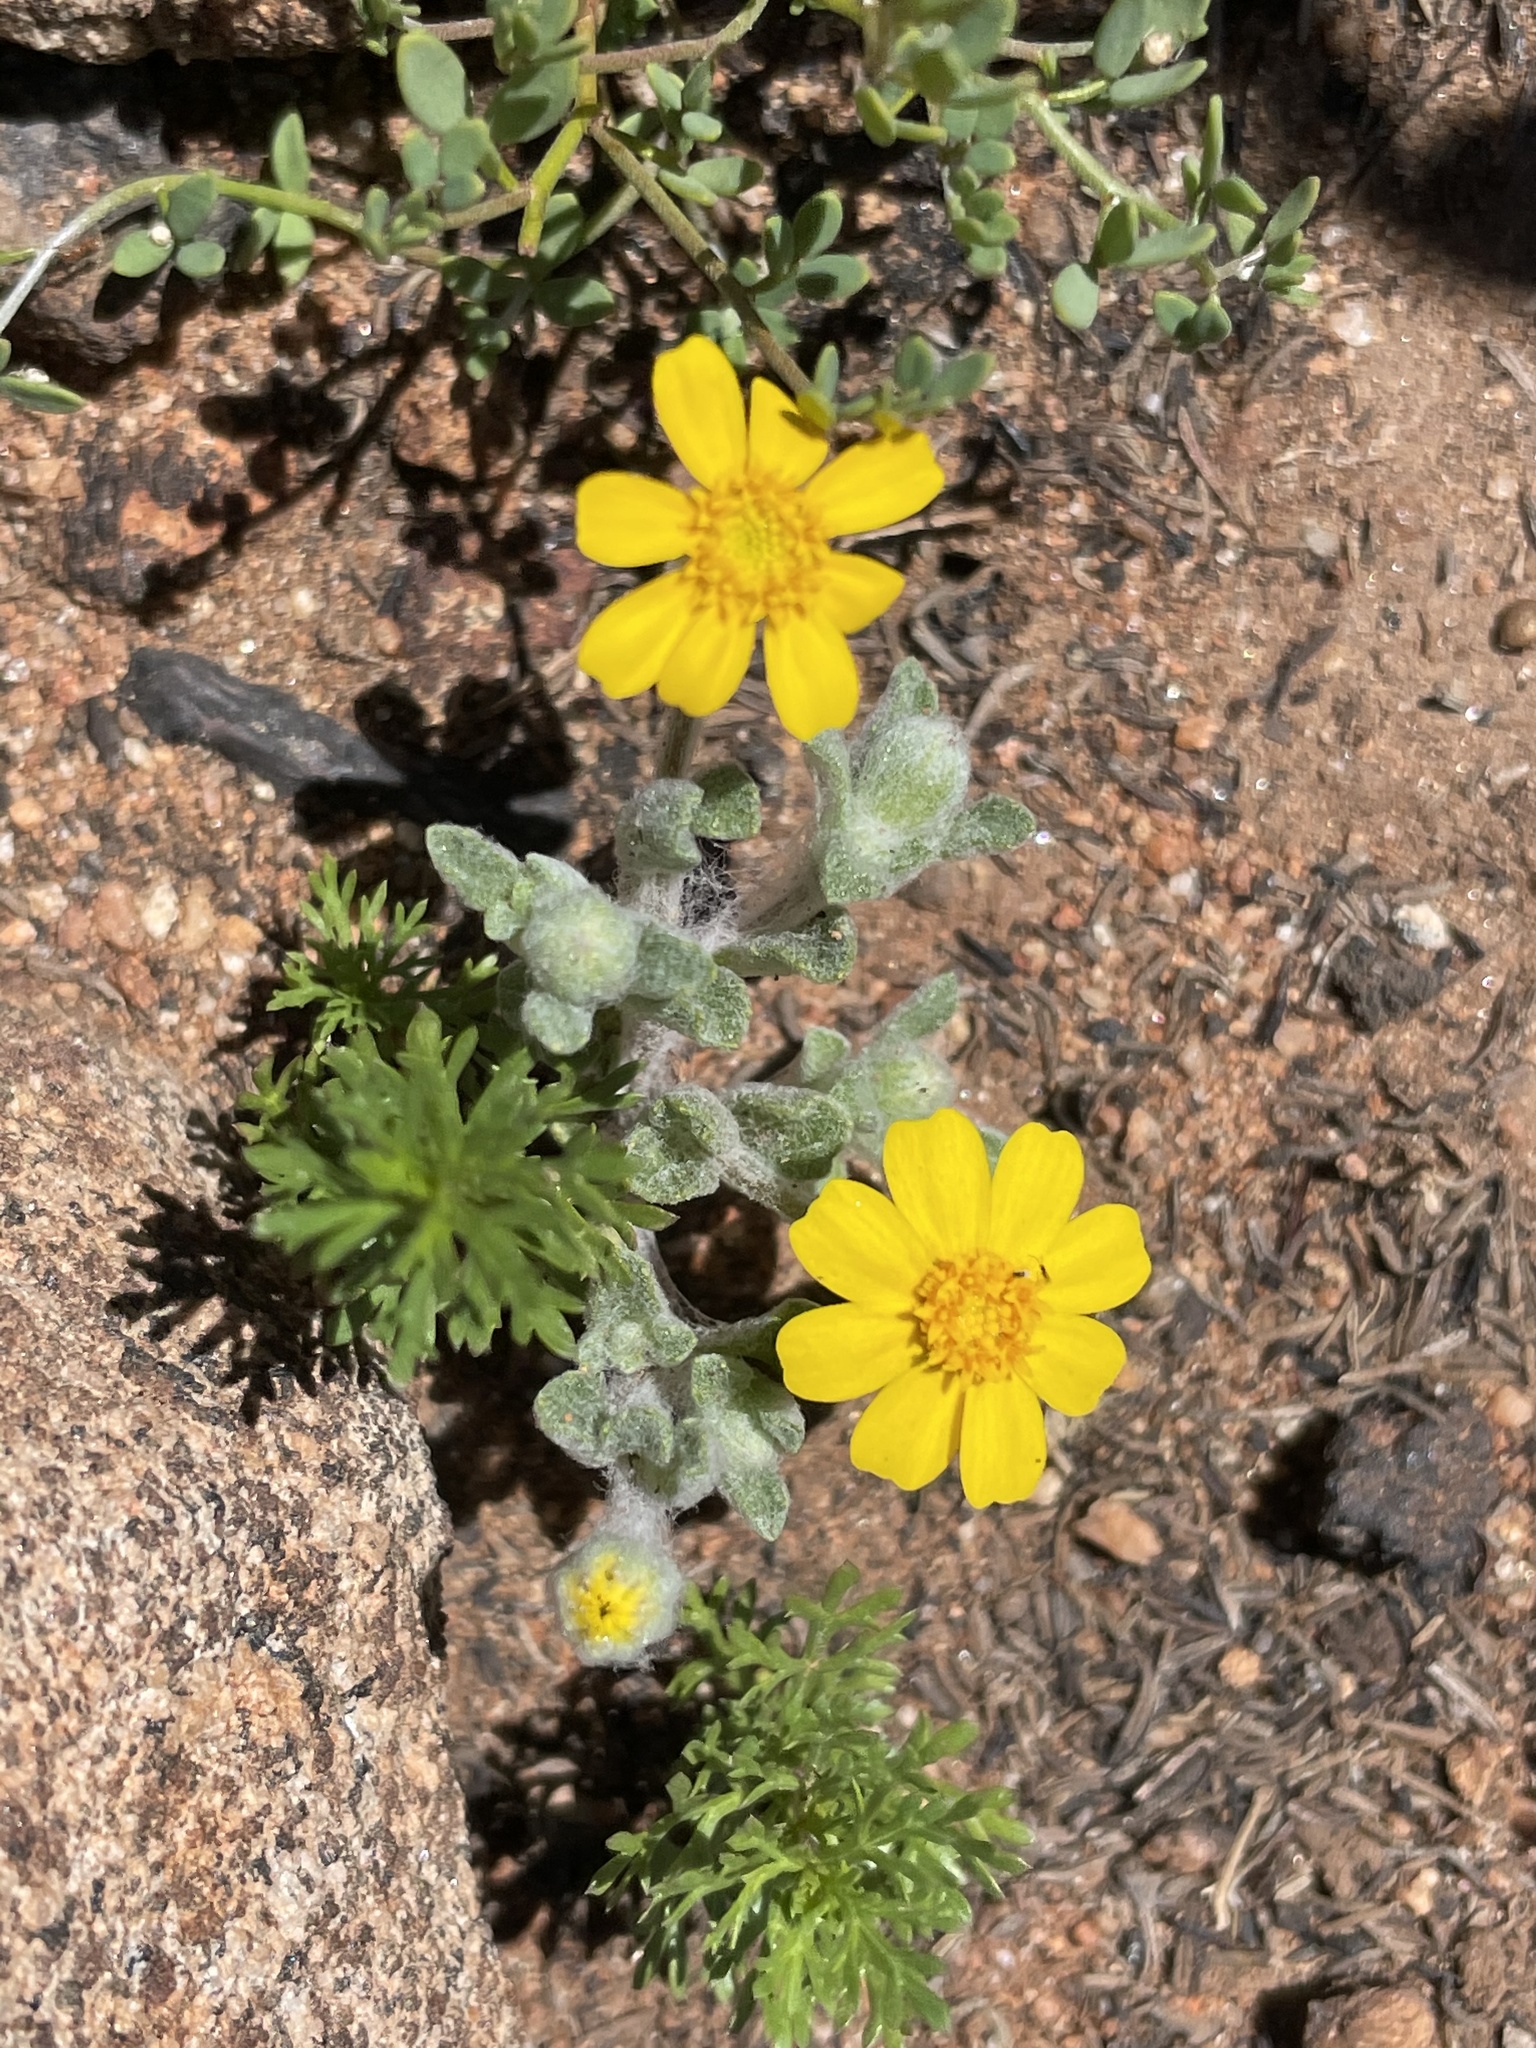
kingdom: Plantae
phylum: Tracheophyta
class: Magnoliopsida
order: Asterales
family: Asteraceae
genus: Eriophyllum
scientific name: Eriophyllum wallacei
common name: Wallace's woolly daisy
